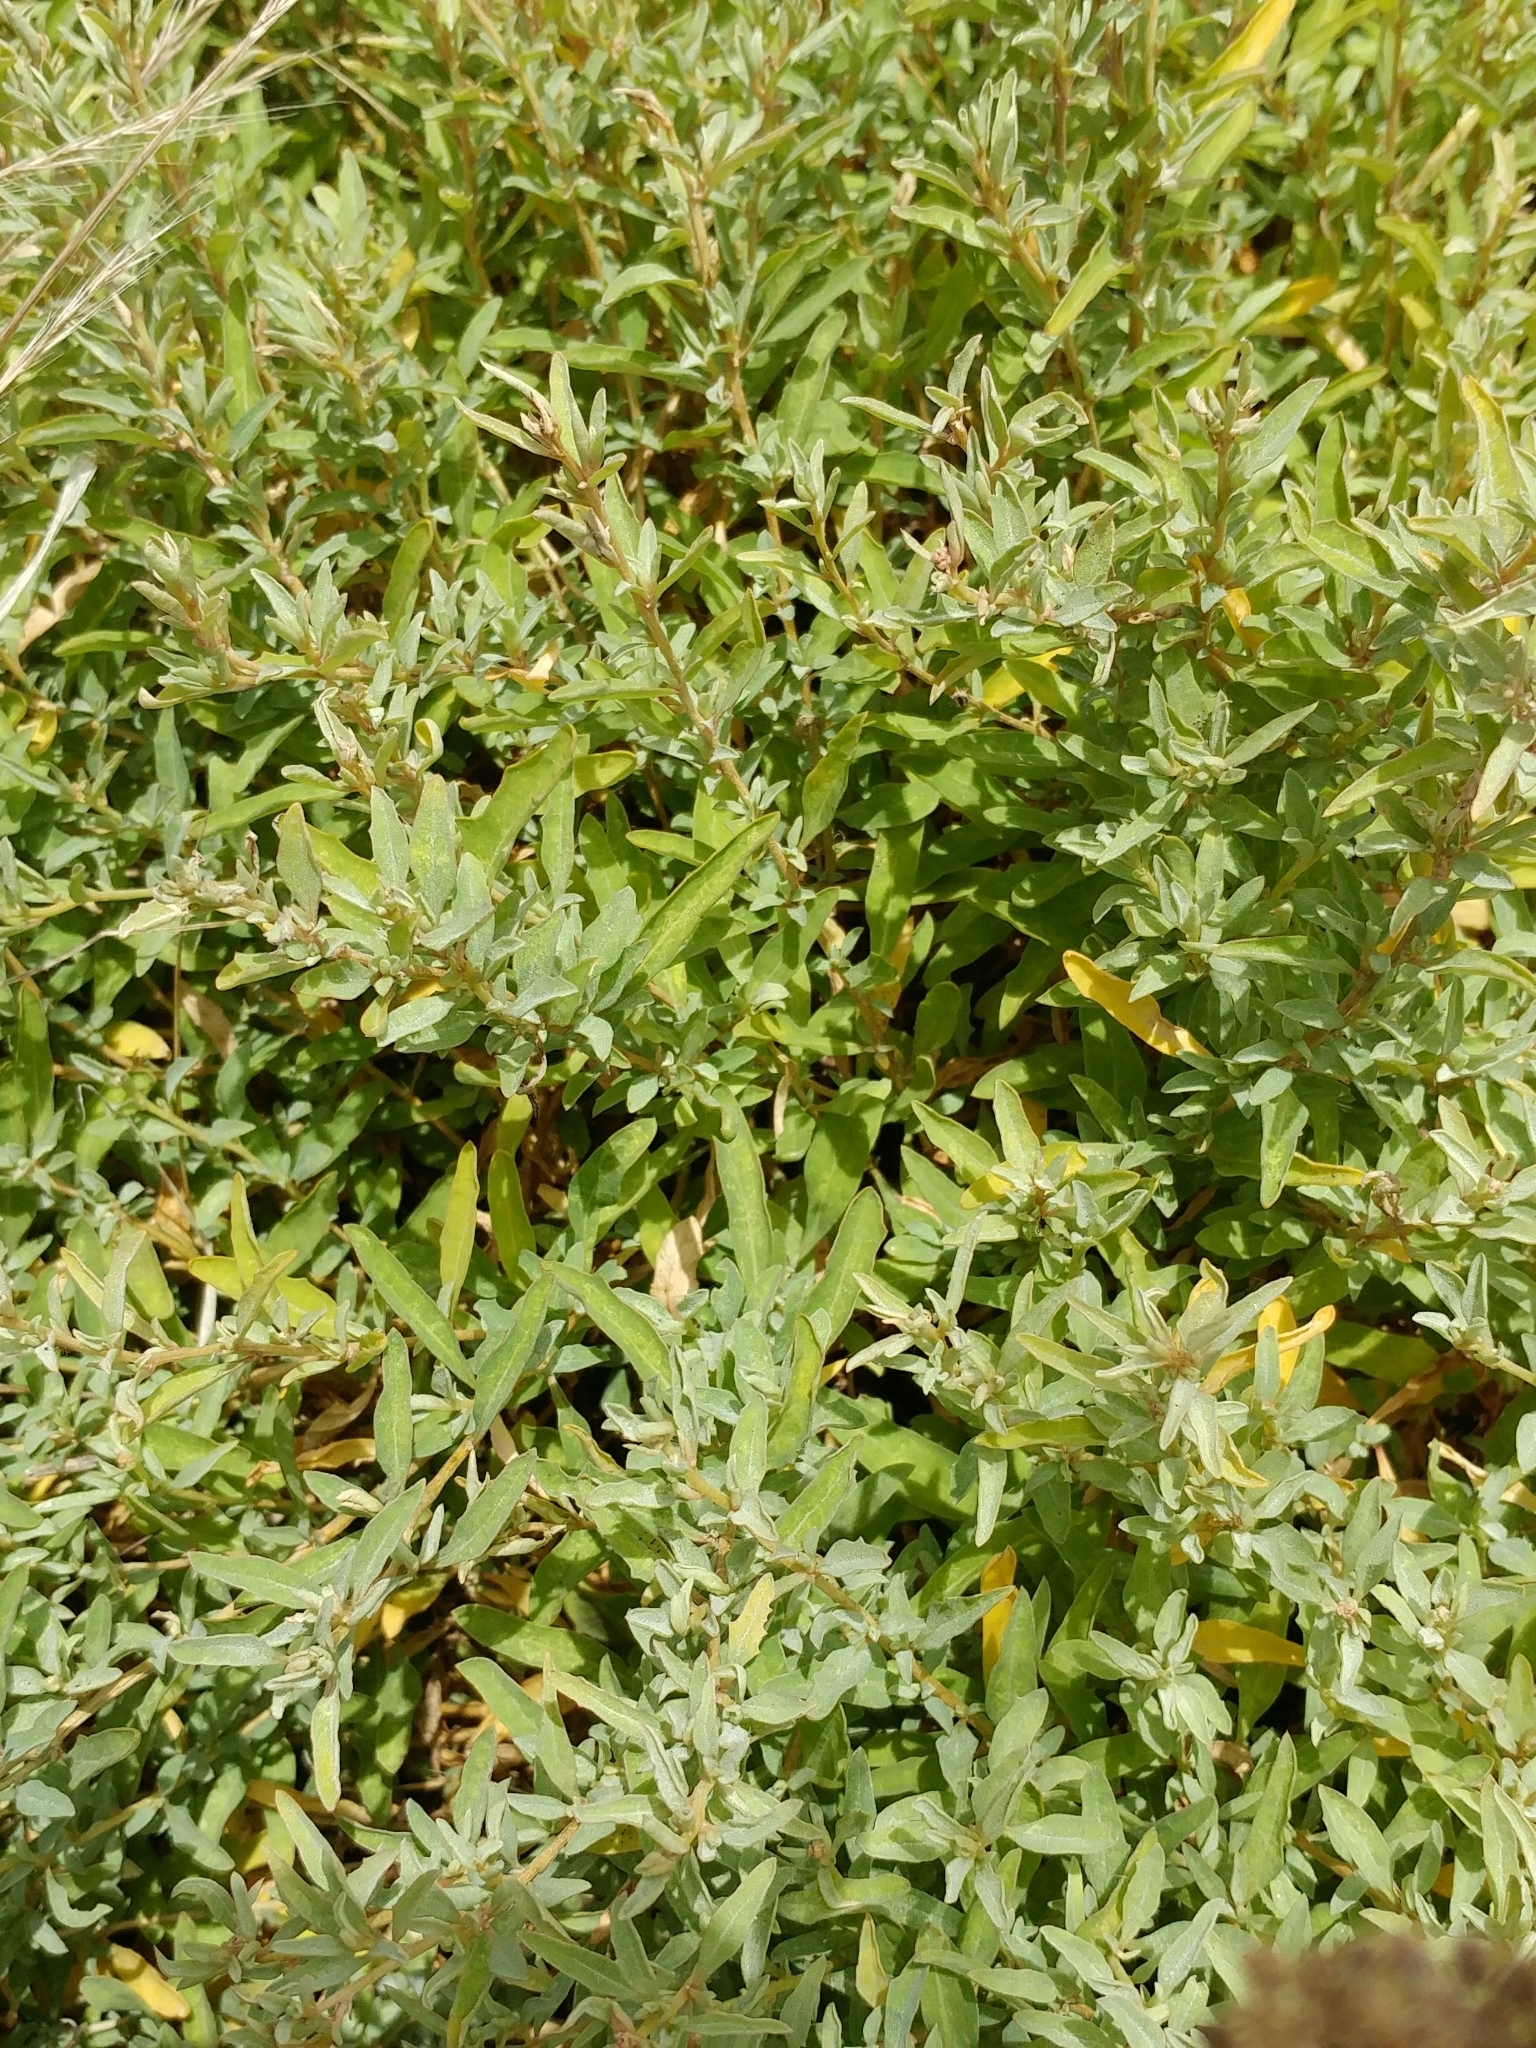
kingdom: Plantae
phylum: Tracheophyta
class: Magnoliopsida
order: Caryophyllales
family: Amaranthaceae
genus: Atriplex
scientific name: Atriplex semibaccata
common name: Australian saltbush
